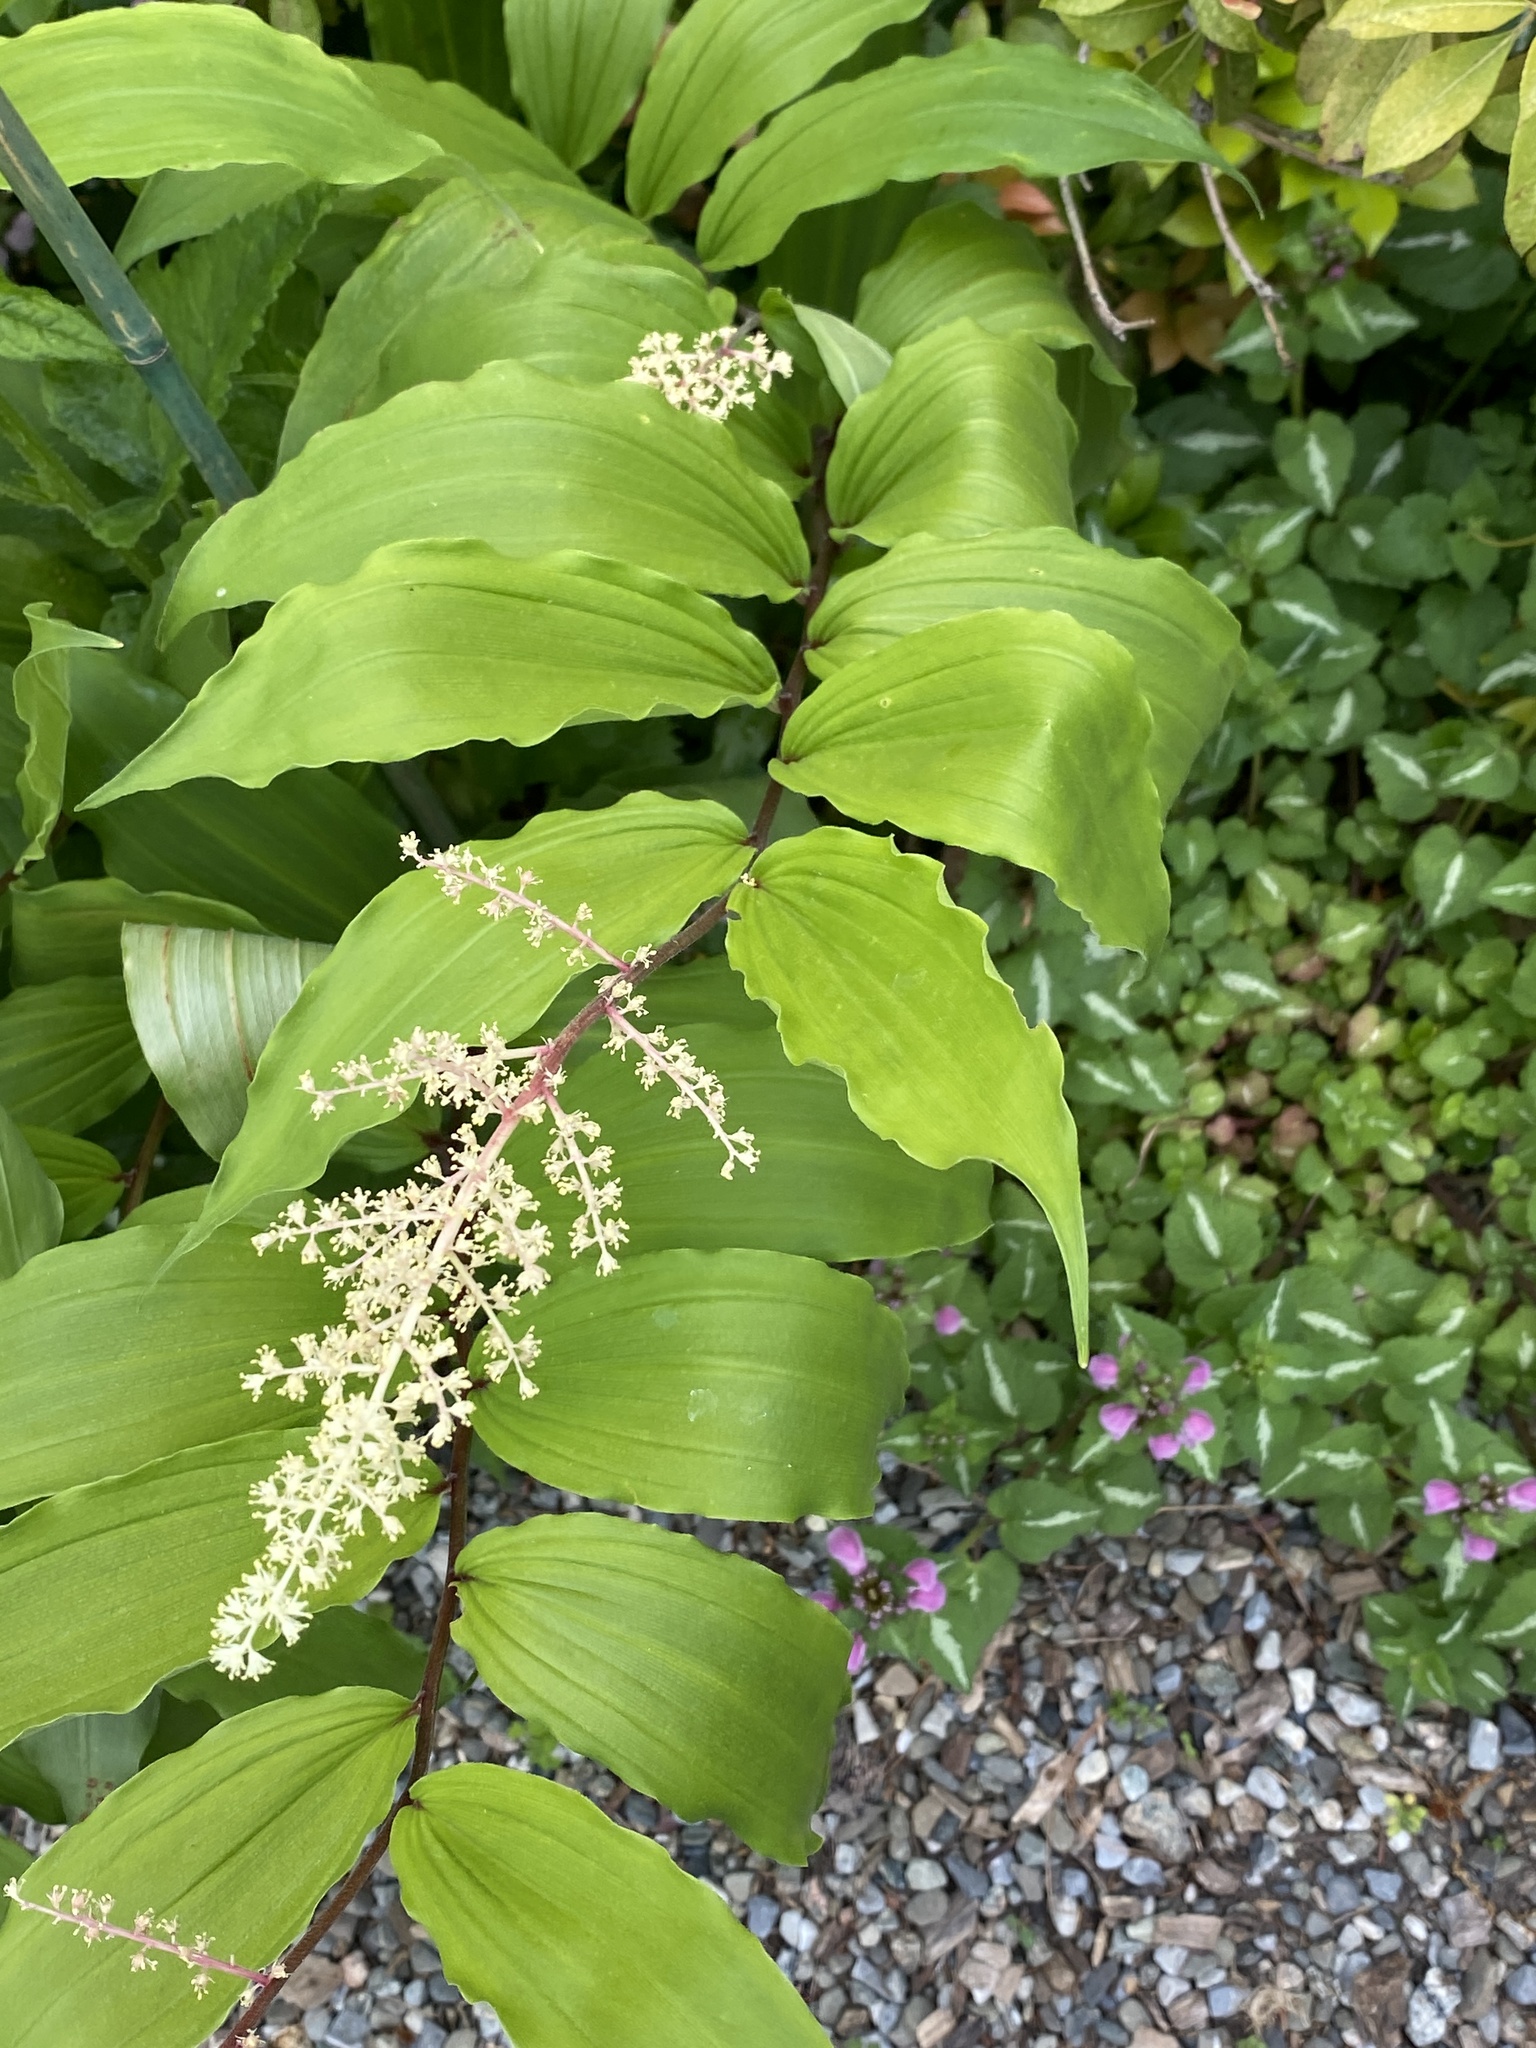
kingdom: Plantae
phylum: Tracheophyta
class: Liliopsida
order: Asparagales
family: Asparagaceae
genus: Maianthemum
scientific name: Maianthemum racemosum
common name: False spikenard
